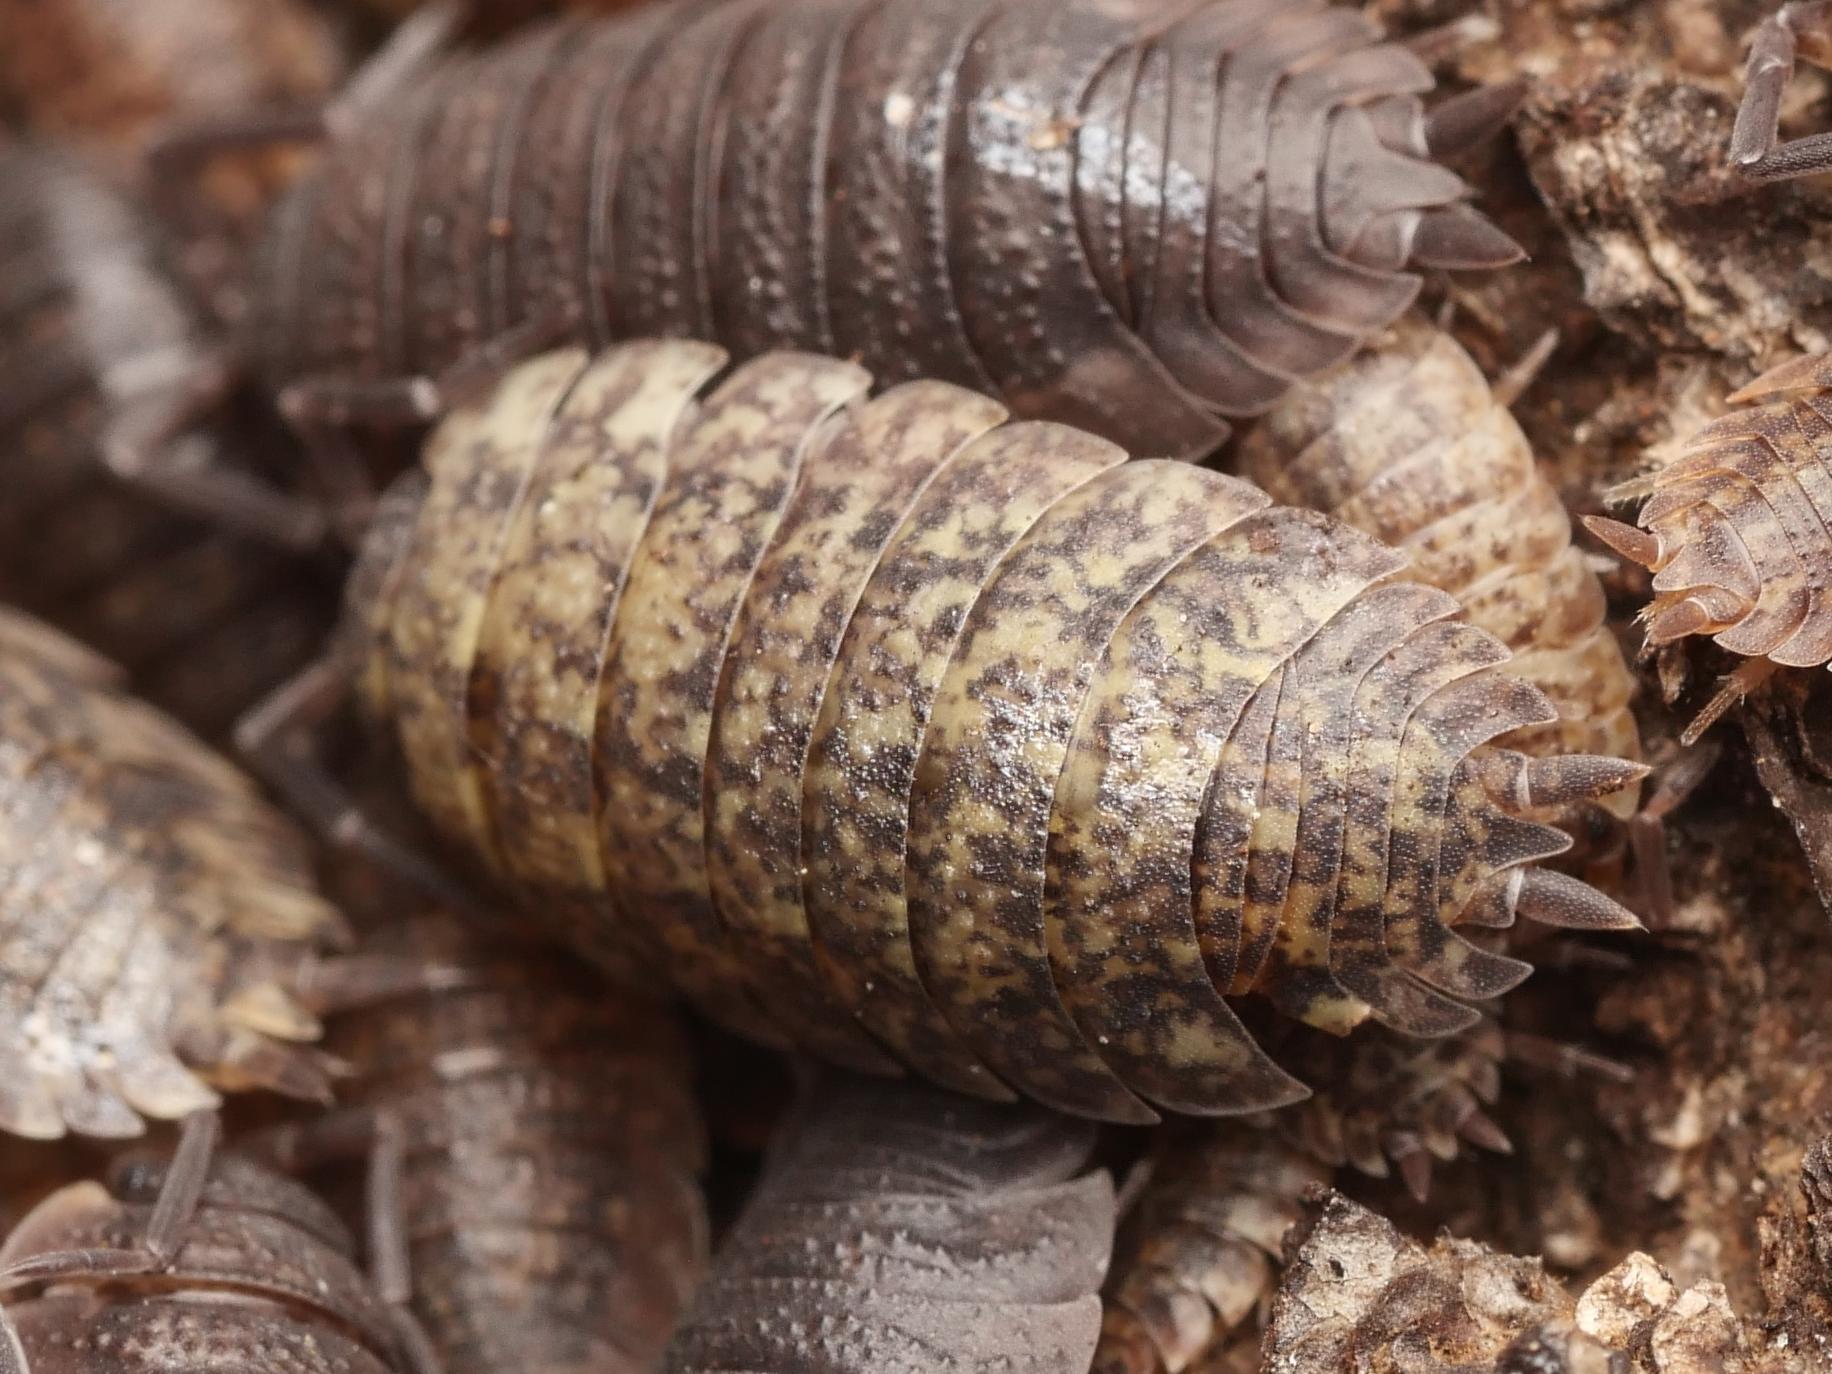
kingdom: Animalia
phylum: Arthropoda
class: Malacostraca
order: Isopoda
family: Porcellionidae
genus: Porcellio
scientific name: Porcellio scaber
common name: Common rough woodlouse
